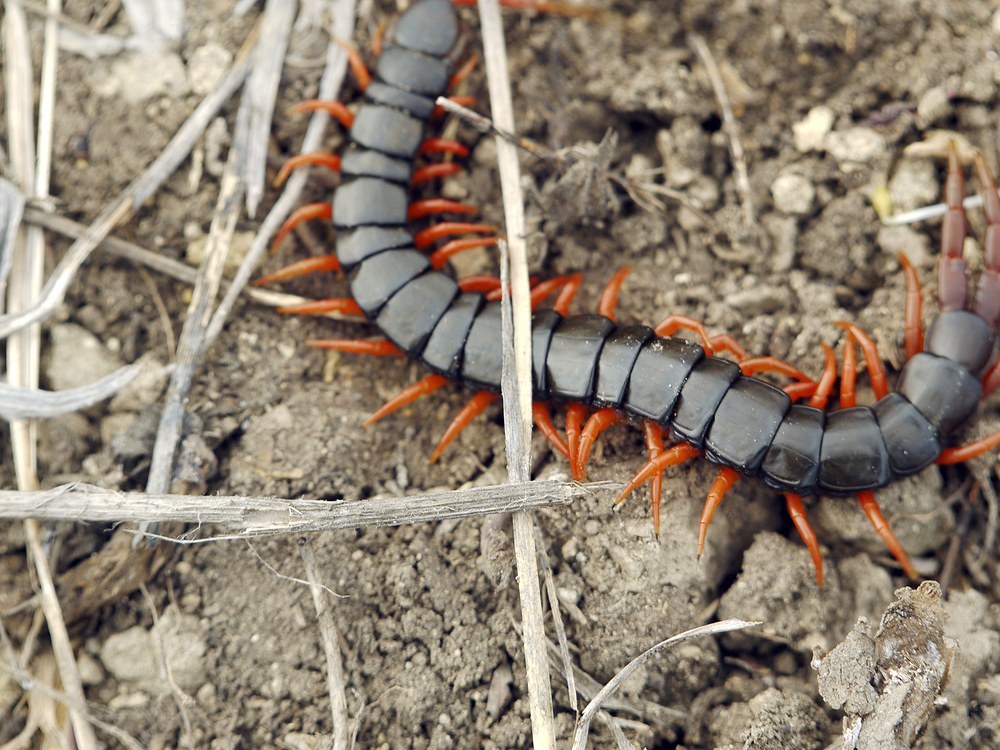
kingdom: Animalia
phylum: Arthropoda
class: Chilopoda
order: Scolopendromorpha
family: Scolopendridae
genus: Scolopendra
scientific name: Scolopendra cingulata
